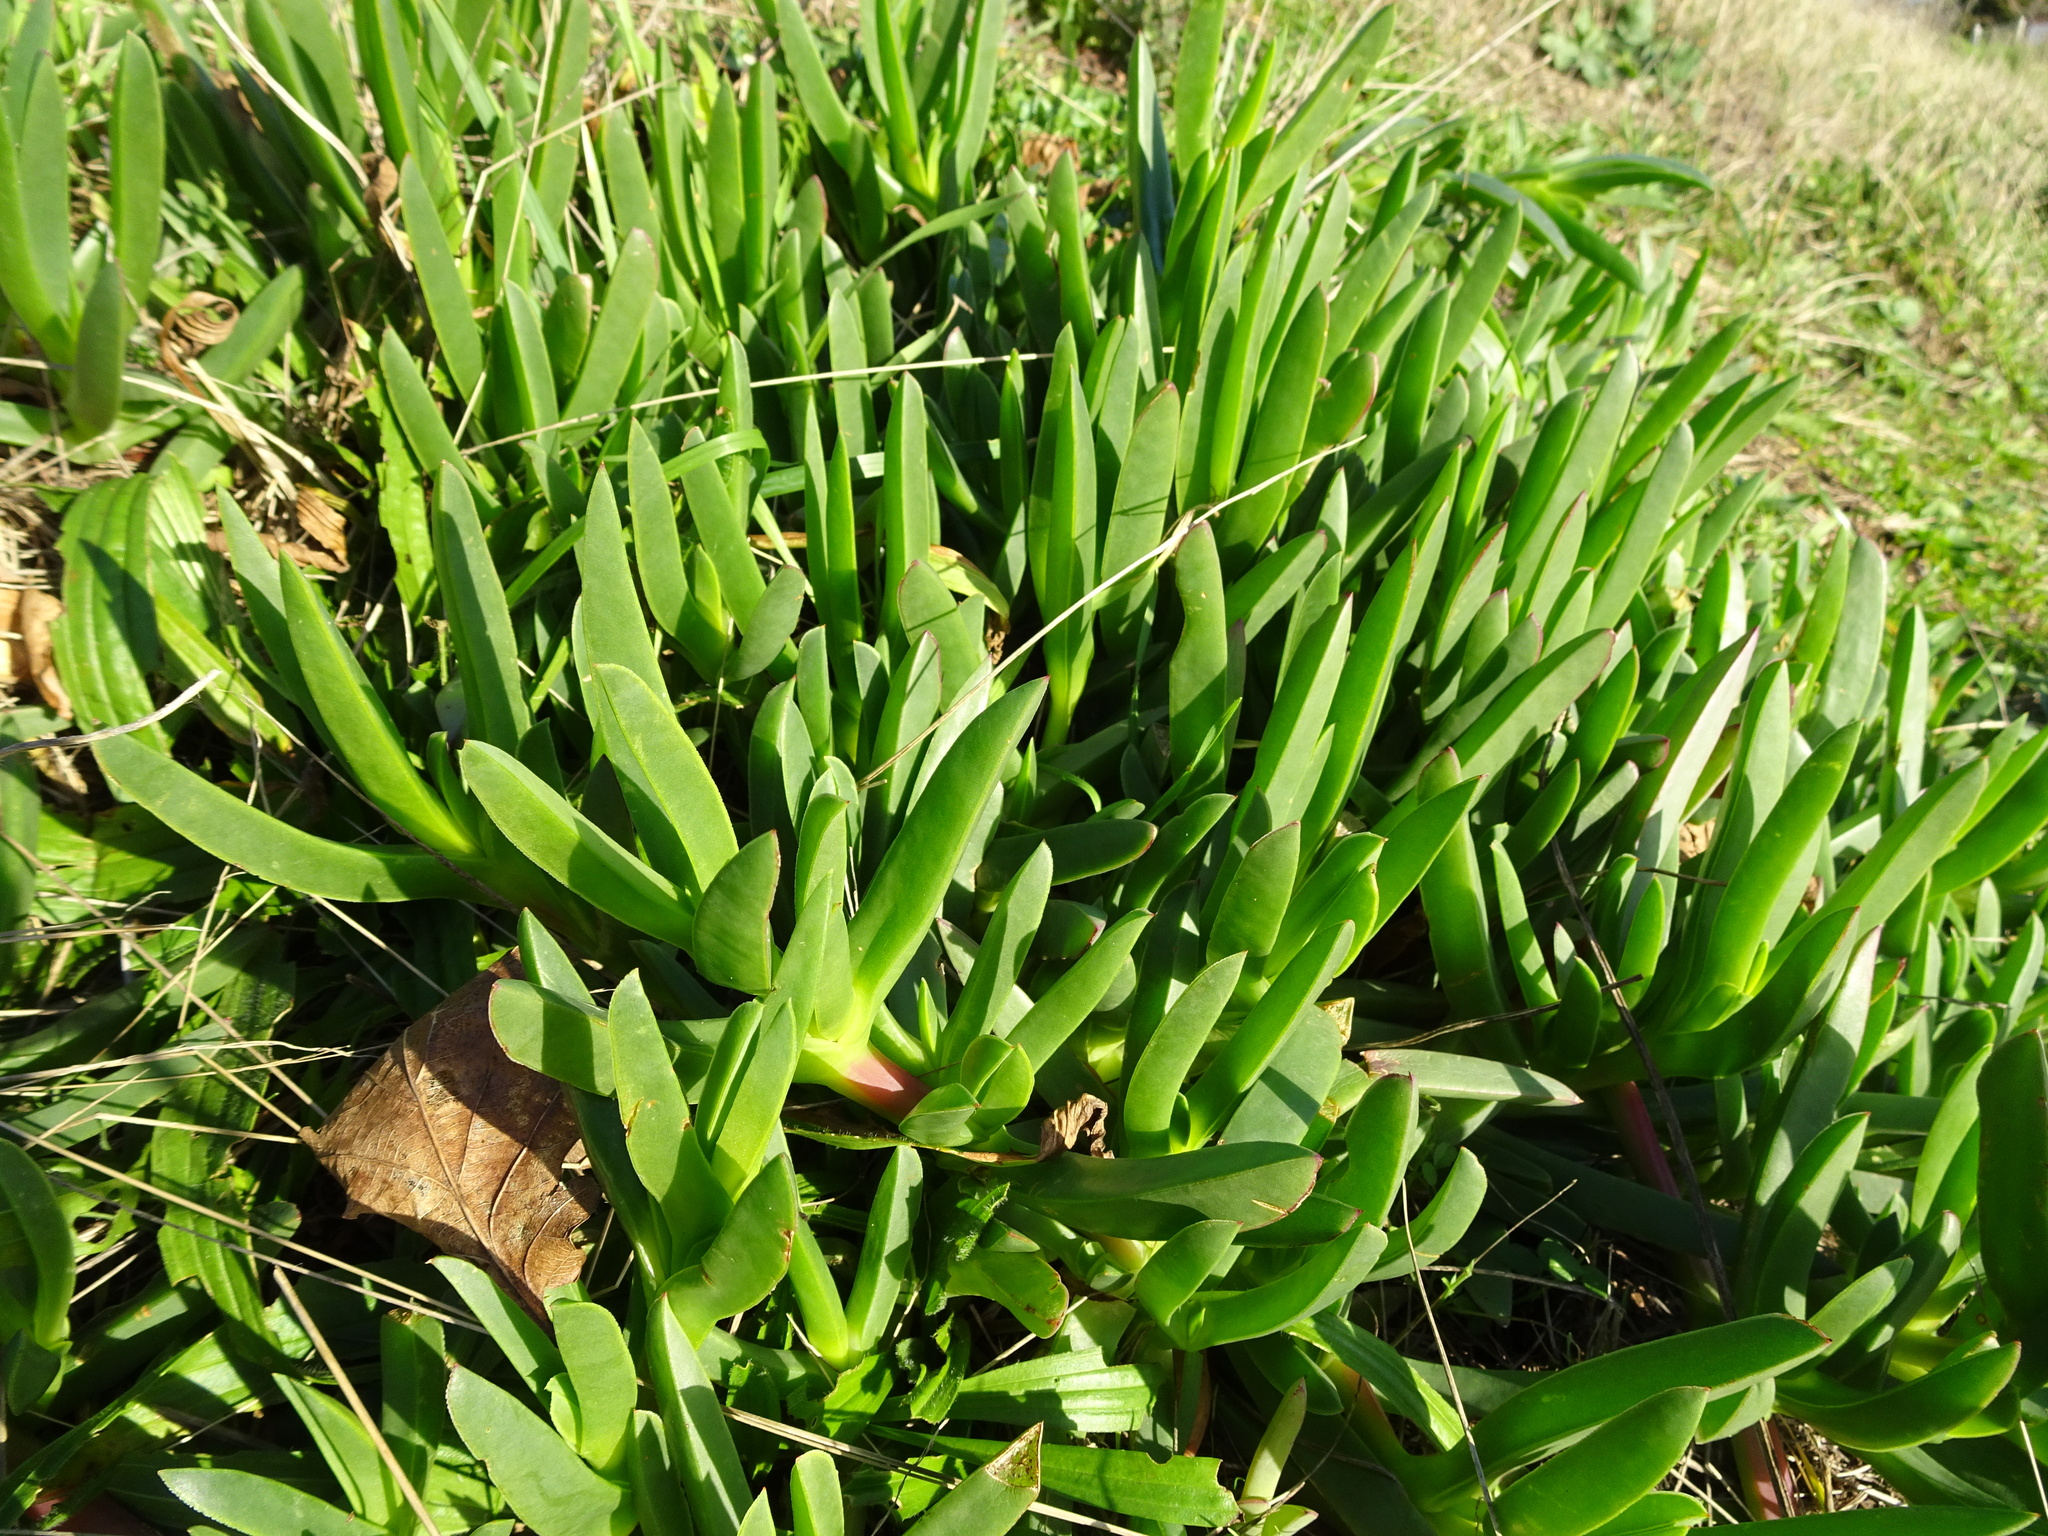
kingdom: Plantae
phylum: Tracheophyta
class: Magnoliopsida
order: Caryophyllales
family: Aizoaceae
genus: Carpobrotus
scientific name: Carpobrotus edulis
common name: Hottentot-fig
